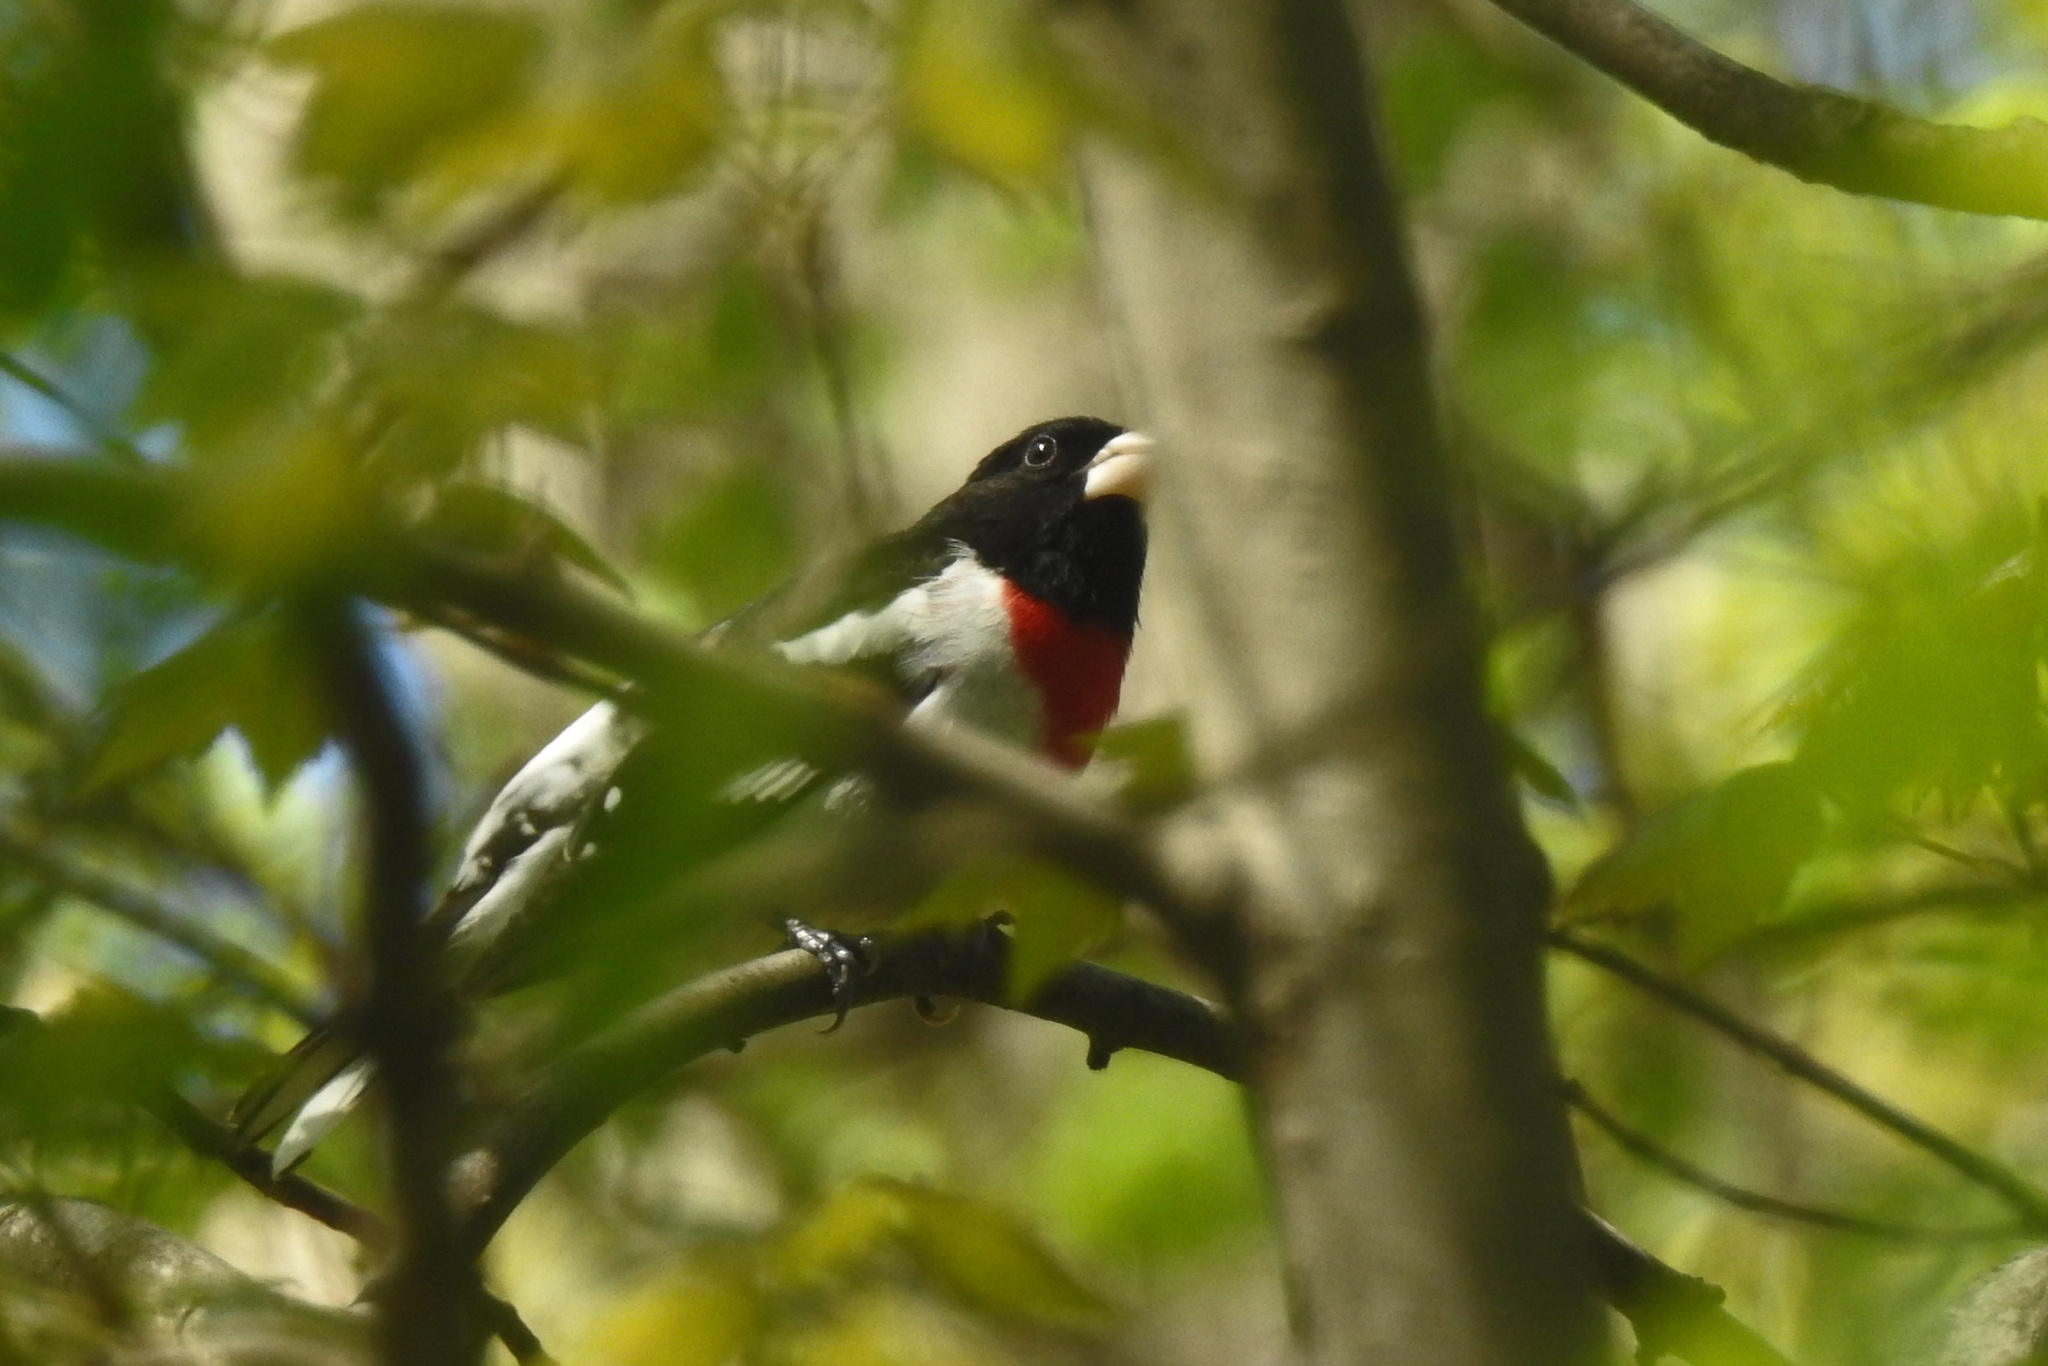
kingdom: Animalia
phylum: Chordata
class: Aves
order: Passeriformes
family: Cardinalidae
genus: Pheucticus
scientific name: Pheucticus ludovicianus
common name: Rose-breasted grosbeak
